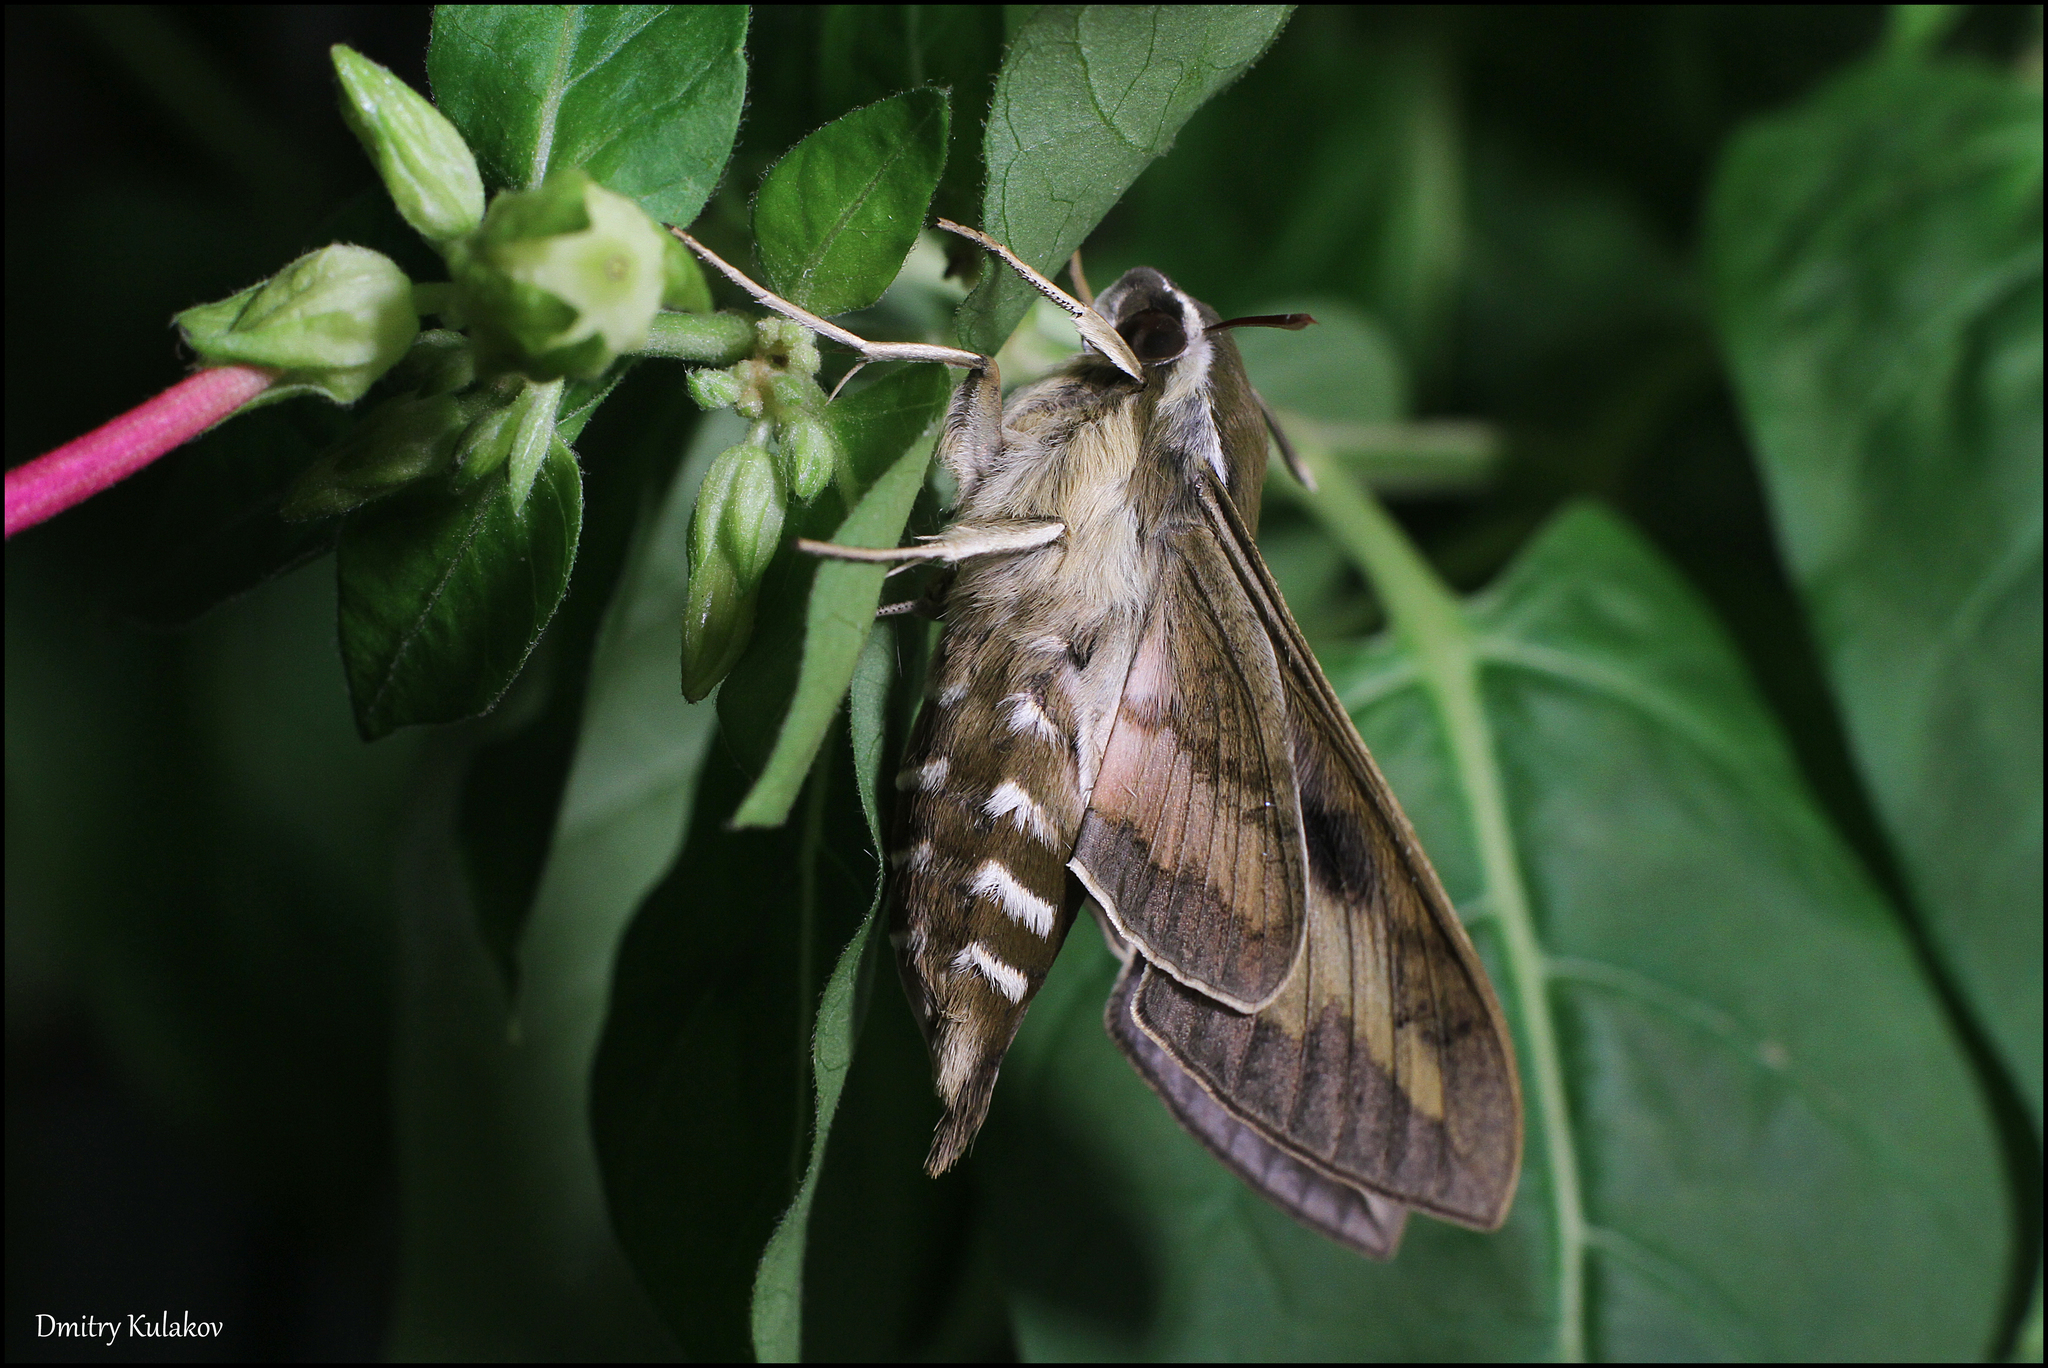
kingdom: Animalia
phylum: Arthropoda
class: Insecta
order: Lepidoptera
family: Sphingidae
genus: Hyles
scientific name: Hyles gallii
